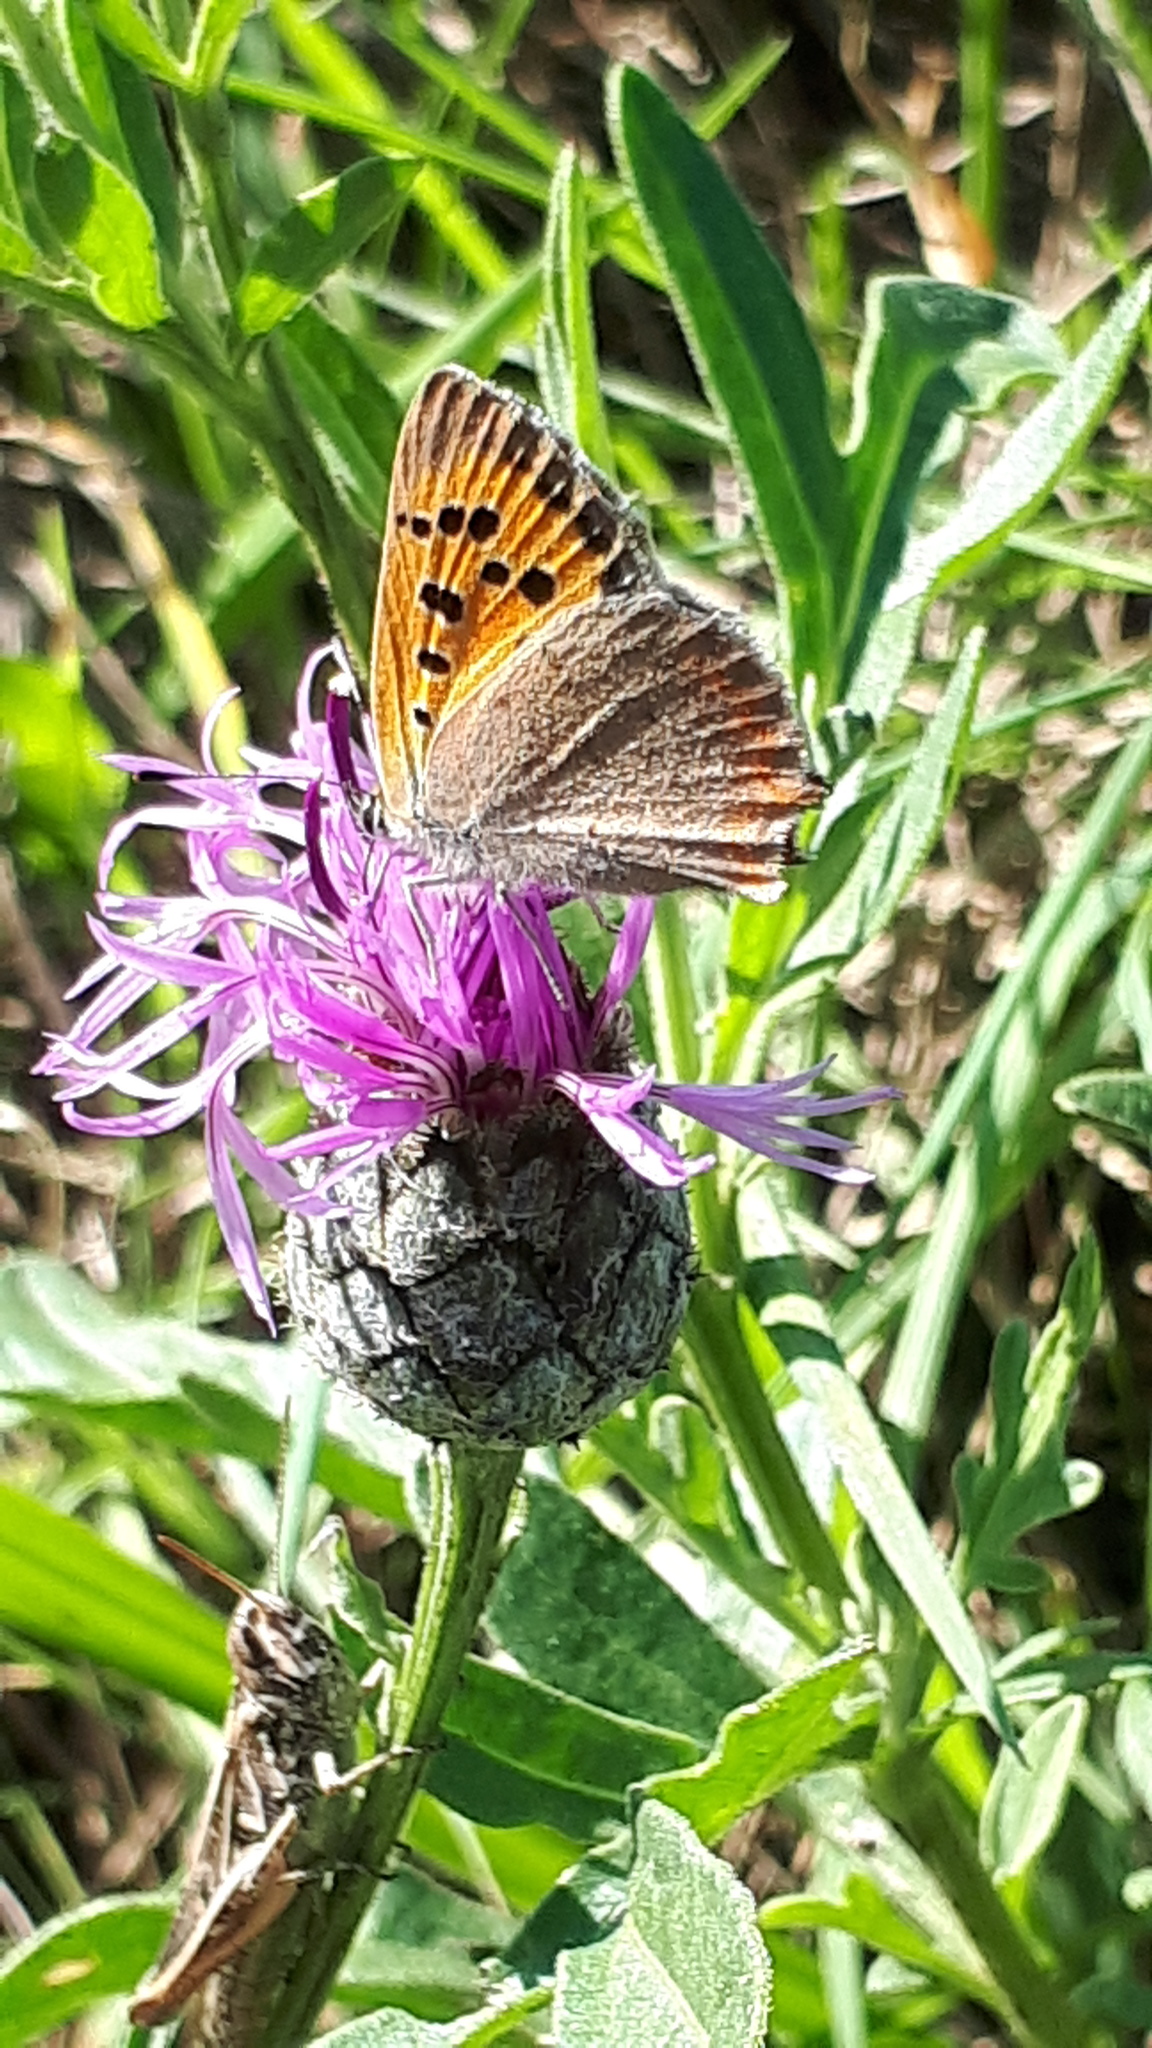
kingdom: Animalia
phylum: Arthropoda
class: Insecta
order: Lepidoptera
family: Lycaenidae
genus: Lycaena
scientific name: Lycaena phlaeas
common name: Small copper
